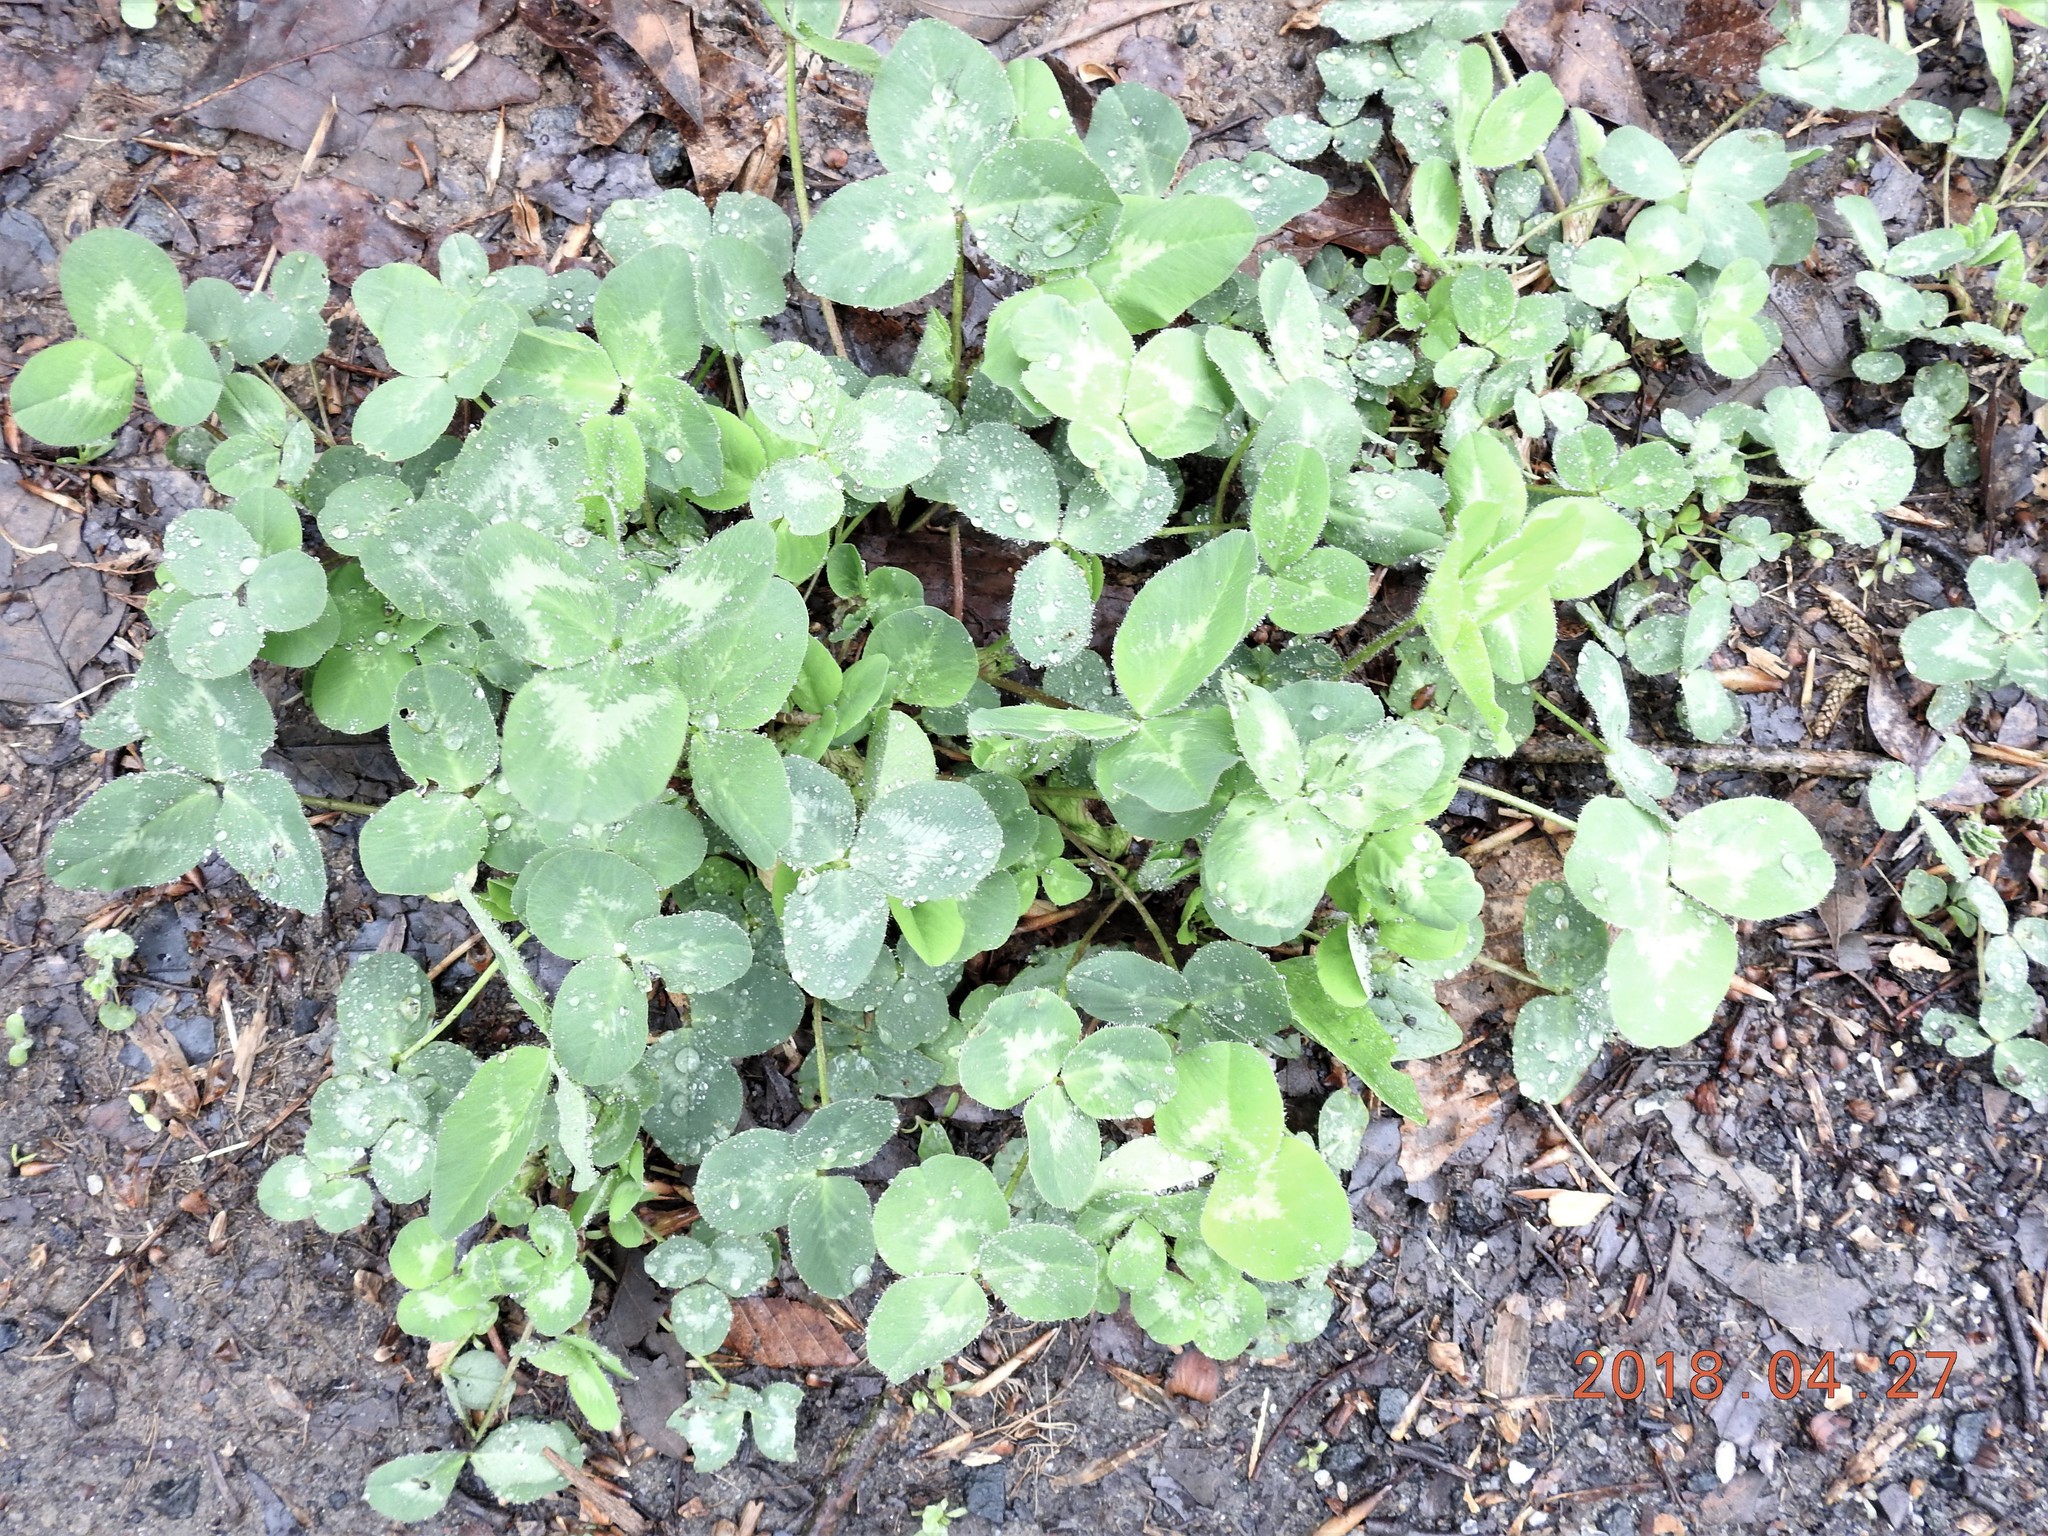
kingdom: Plantae
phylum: Tracheophyta
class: Magnoliopsida
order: Fabales
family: Fabaceae
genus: Trifolium
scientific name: Trifolium pratense
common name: Red clover
